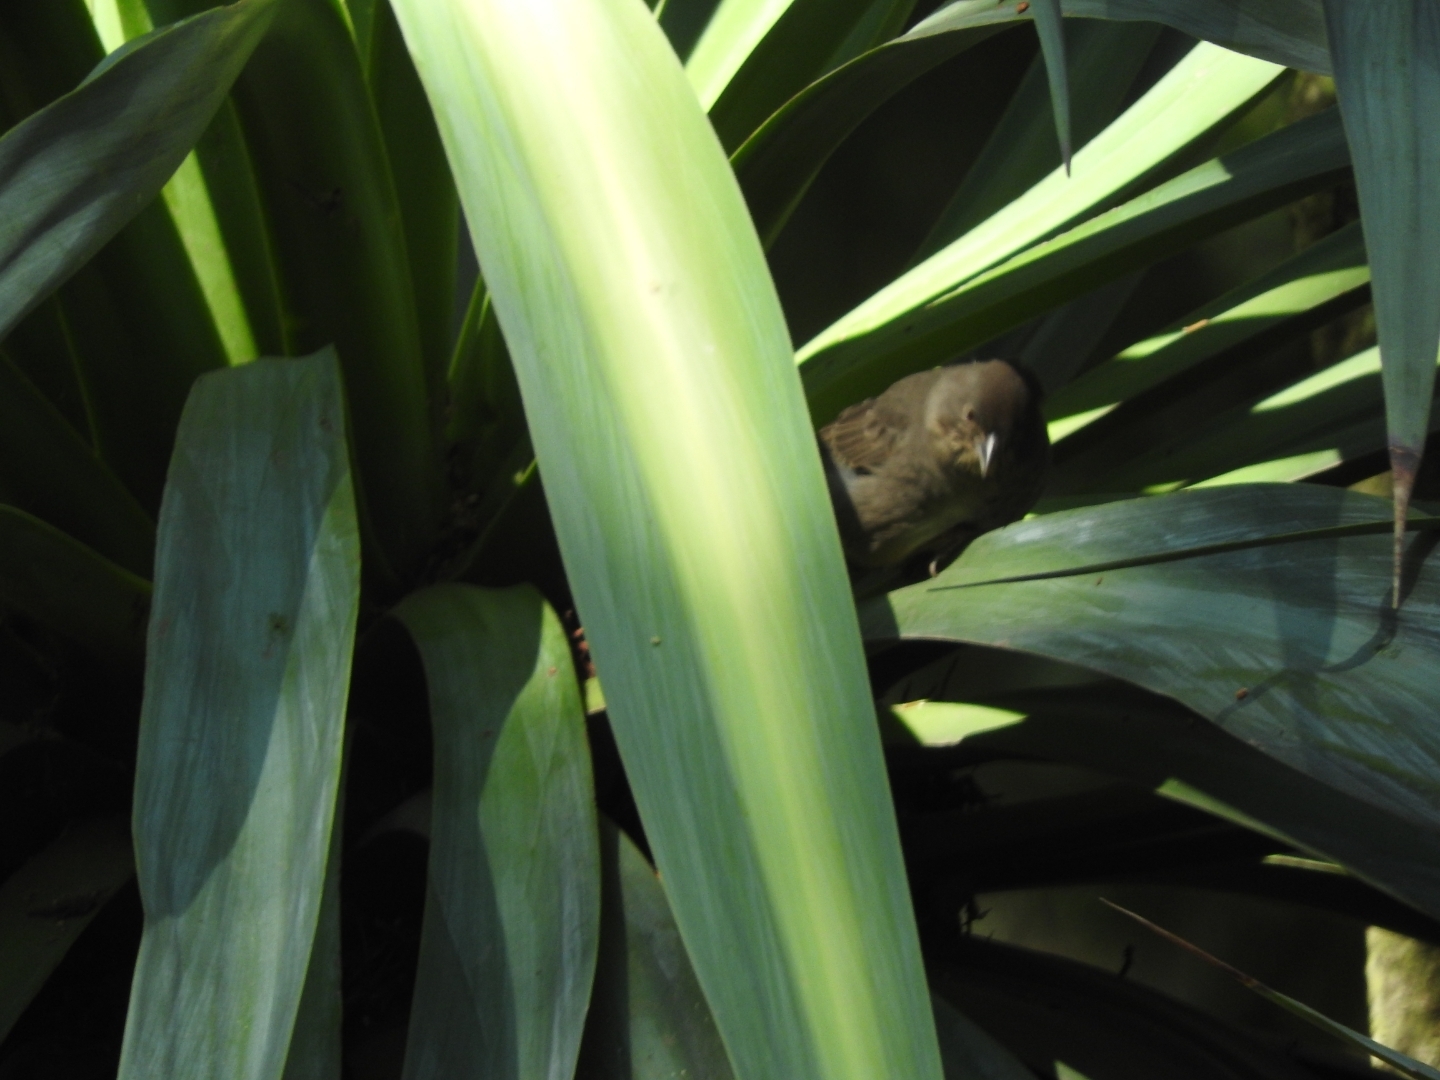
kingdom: Animalia
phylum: Chordata
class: Aves
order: Passeriformes
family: Passerellidae
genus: Melozone
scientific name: Melozone fusca
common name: Canyon towhee
